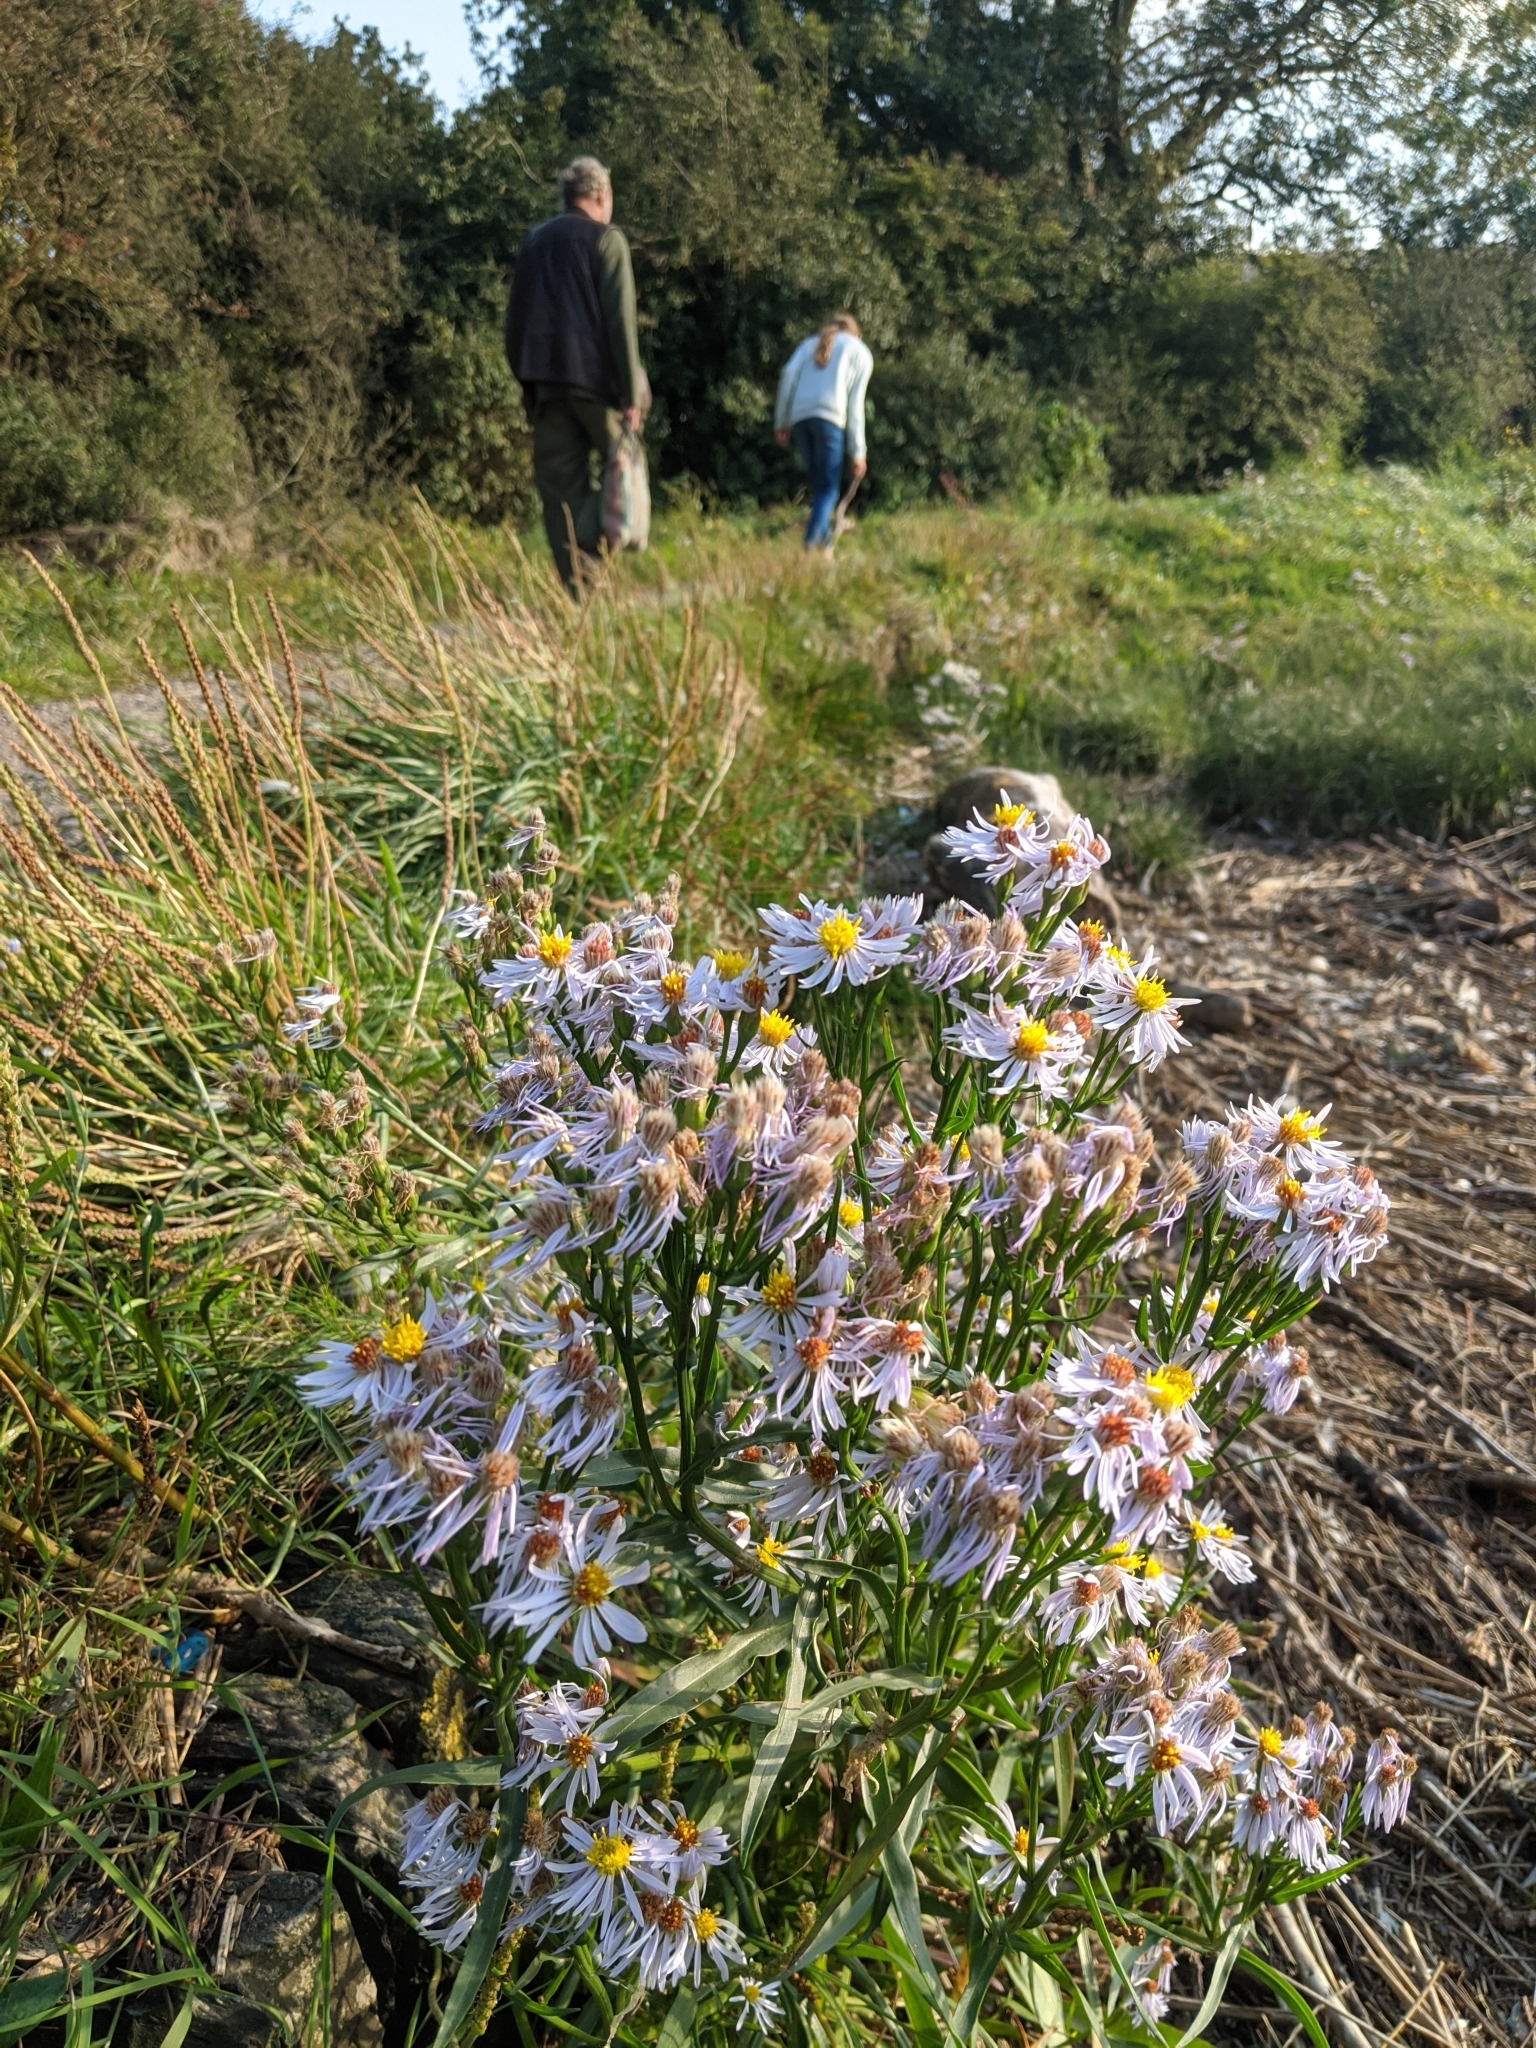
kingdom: Plantae
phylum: Tracheophyta
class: Magnoliopsida
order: Asterales
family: Asteraceae
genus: Tripolium
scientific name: Tripolium pannonicum
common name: Sea aster
